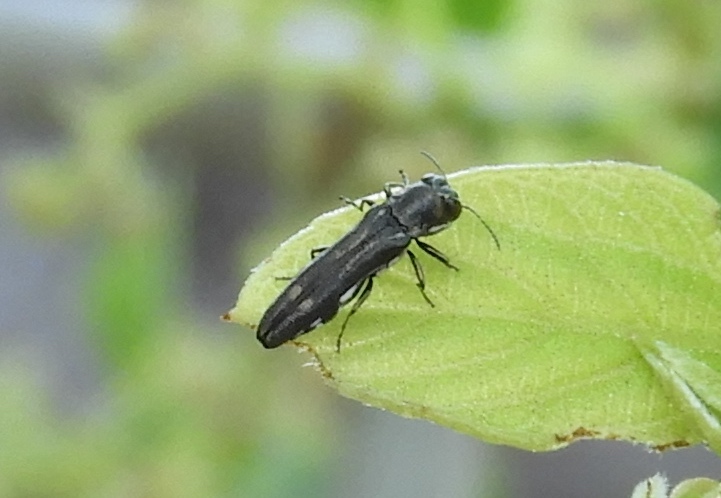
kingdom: Animalia
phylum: Arthropoda
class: Insecta
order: Coleoptera
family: Buprestidae
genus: Agrilus
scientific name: Agrilus
